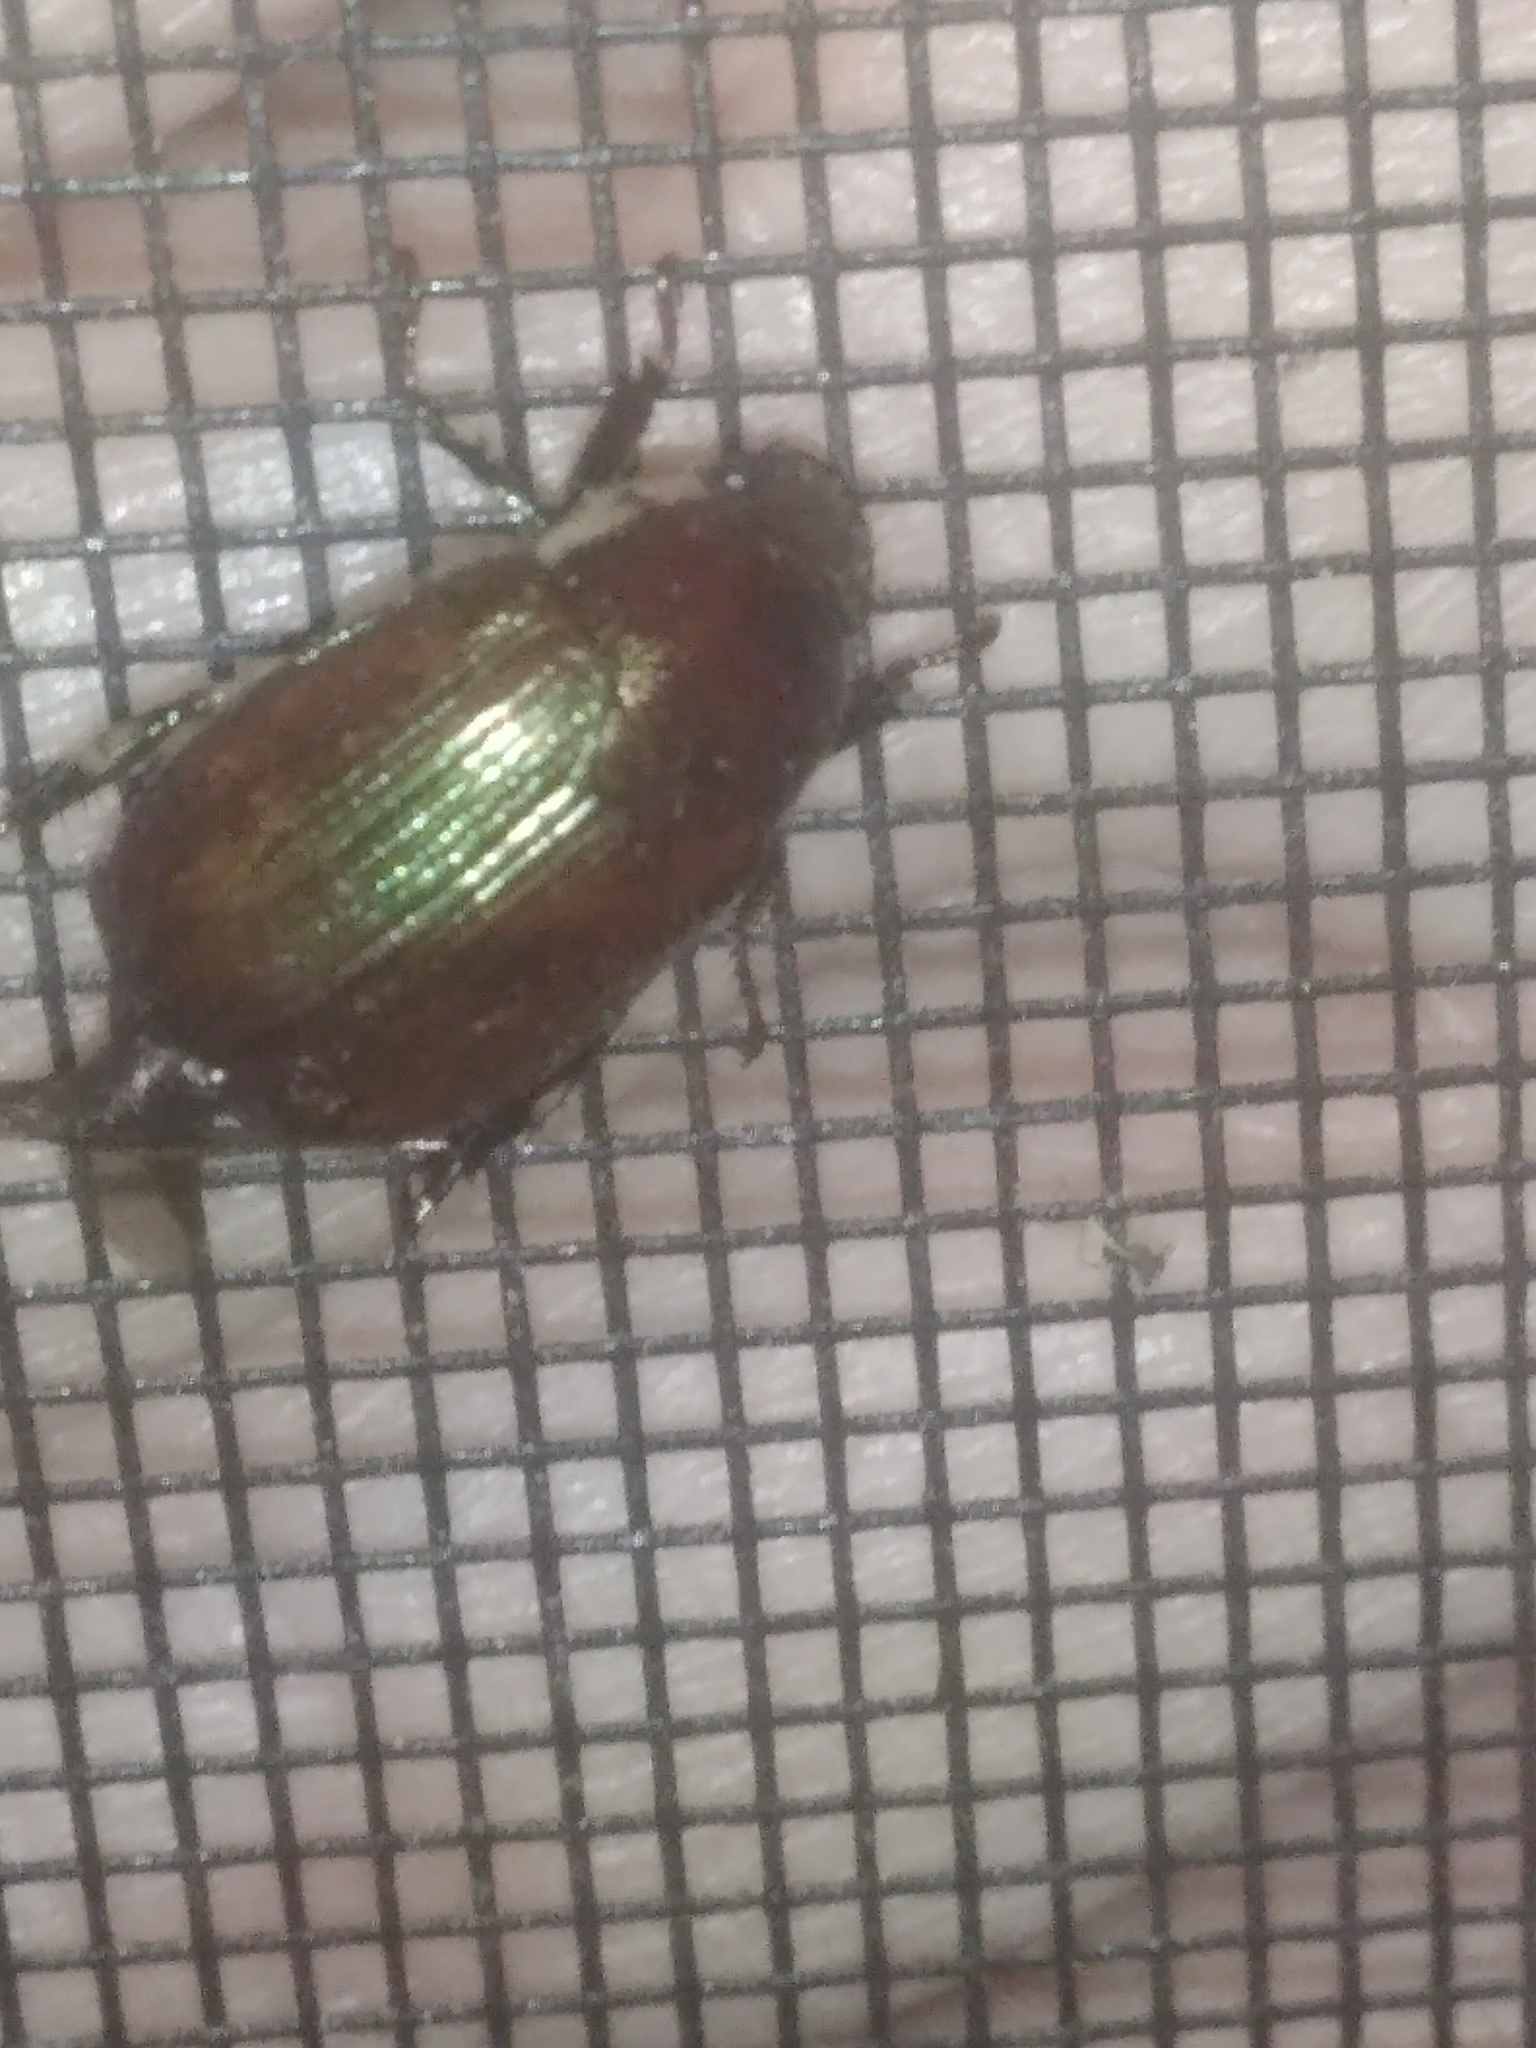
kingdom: Animalia
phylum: Arthropoda
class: Insecta
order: Coleoptera
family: Scarabaeidae
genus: Callistethus
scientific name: Callistethus marginatus
